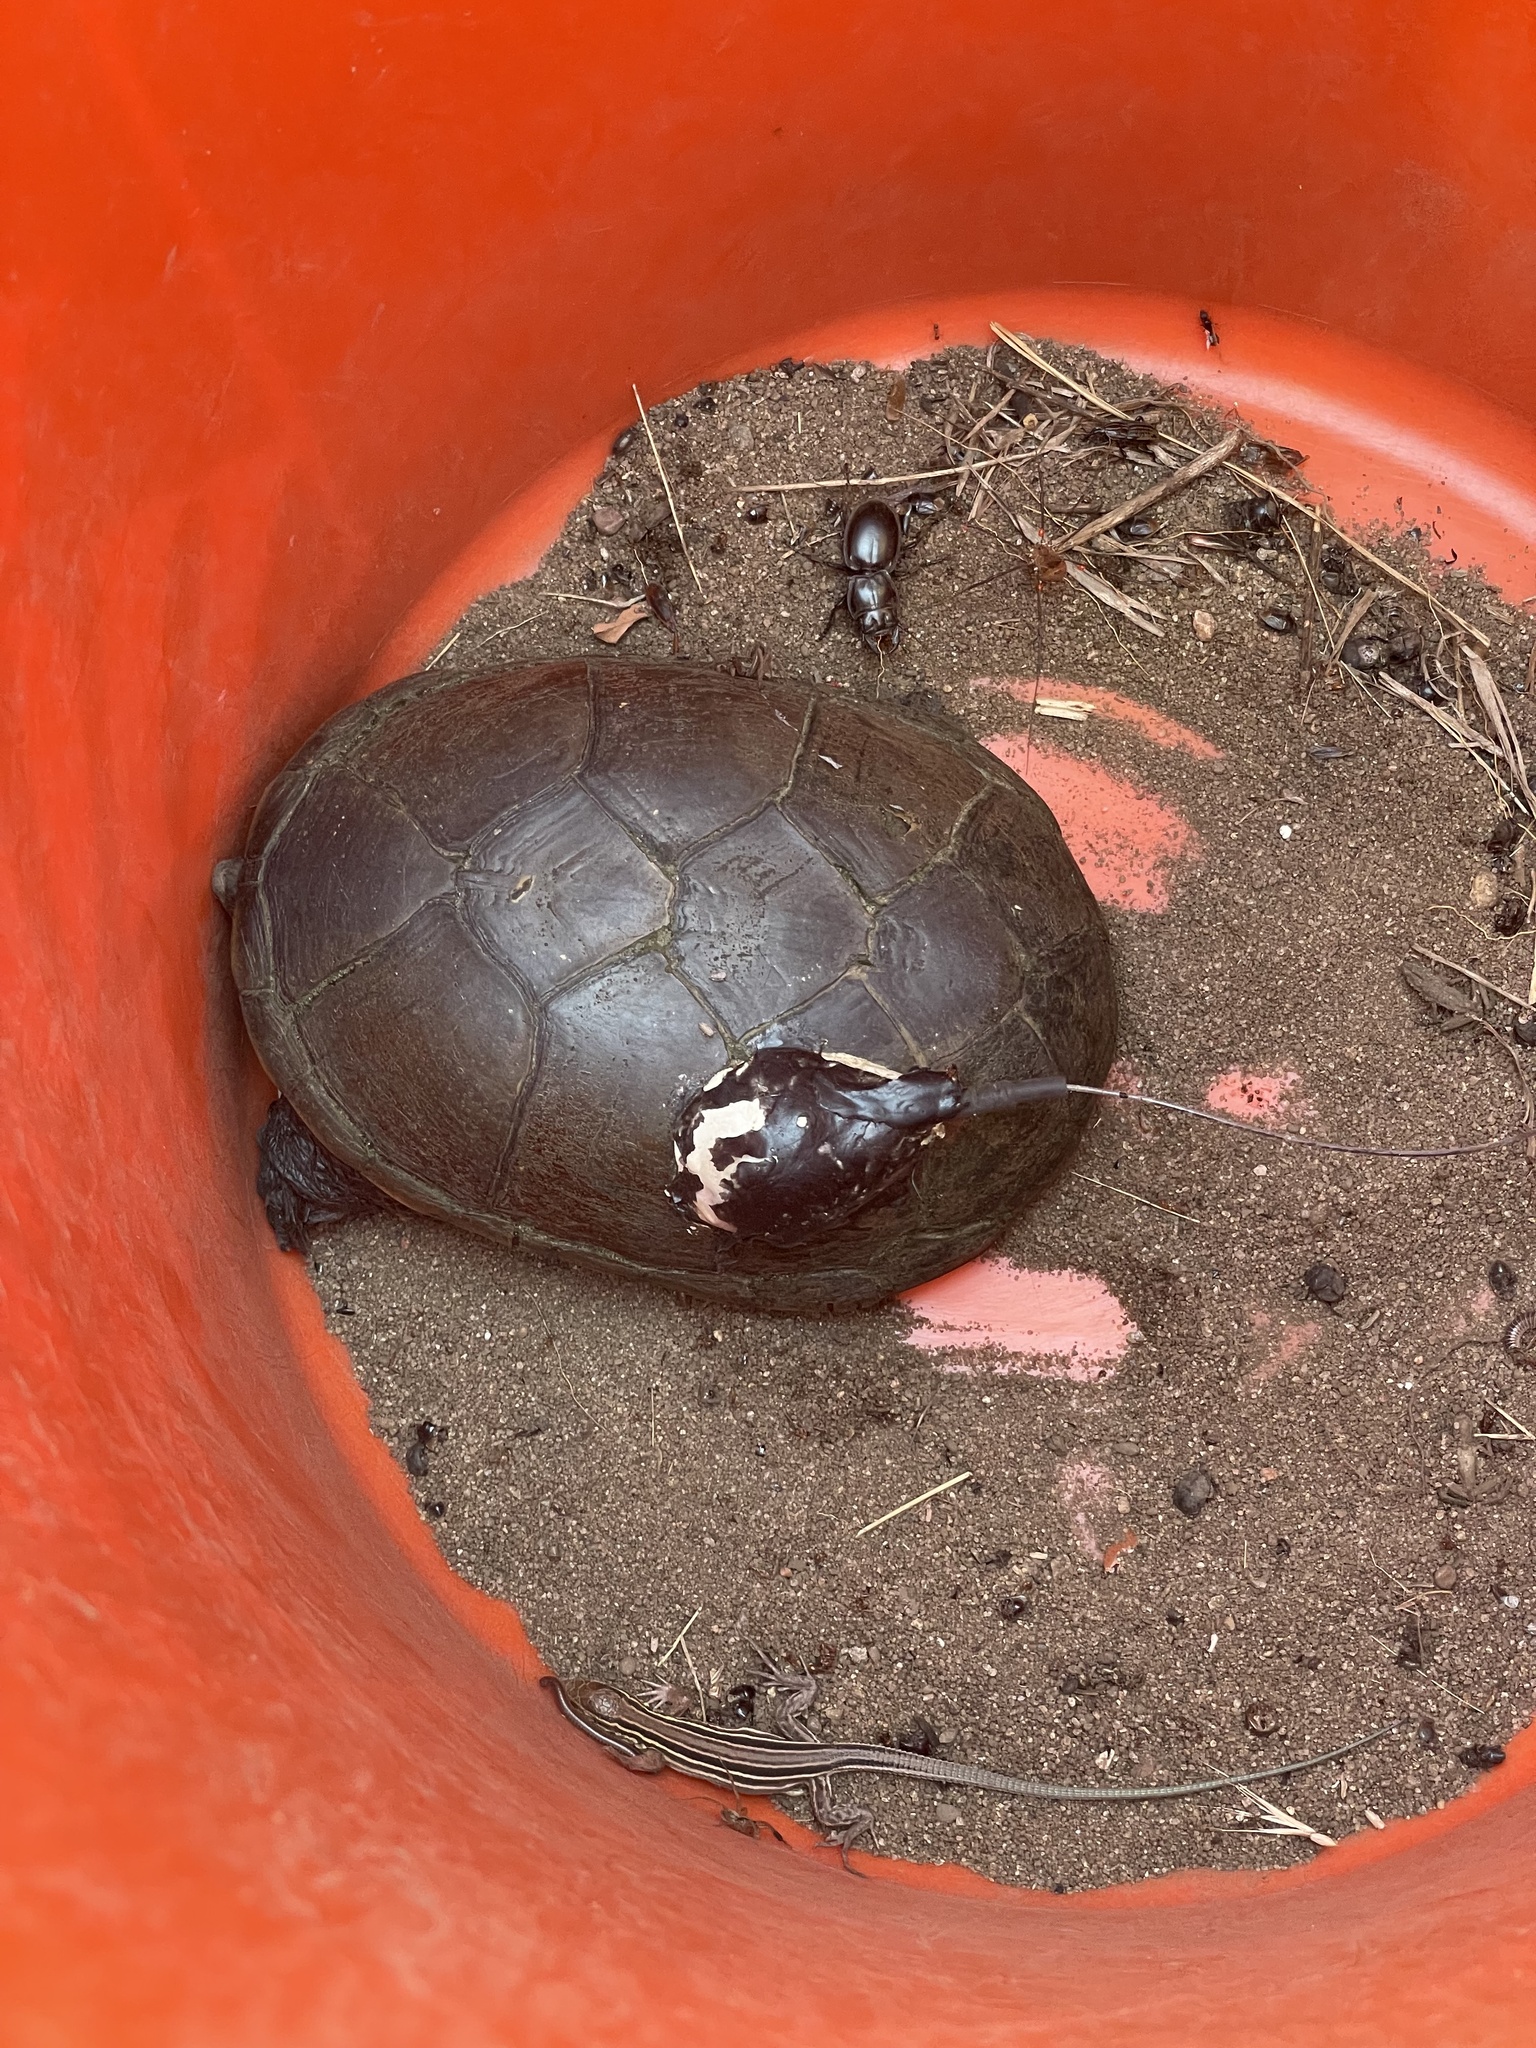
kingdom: Animalia
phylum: Chordata
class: Testudines
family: Kinosternidae
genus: Kinosternon
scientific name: Kinosternon flavescens
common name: Yellow mud turtle
